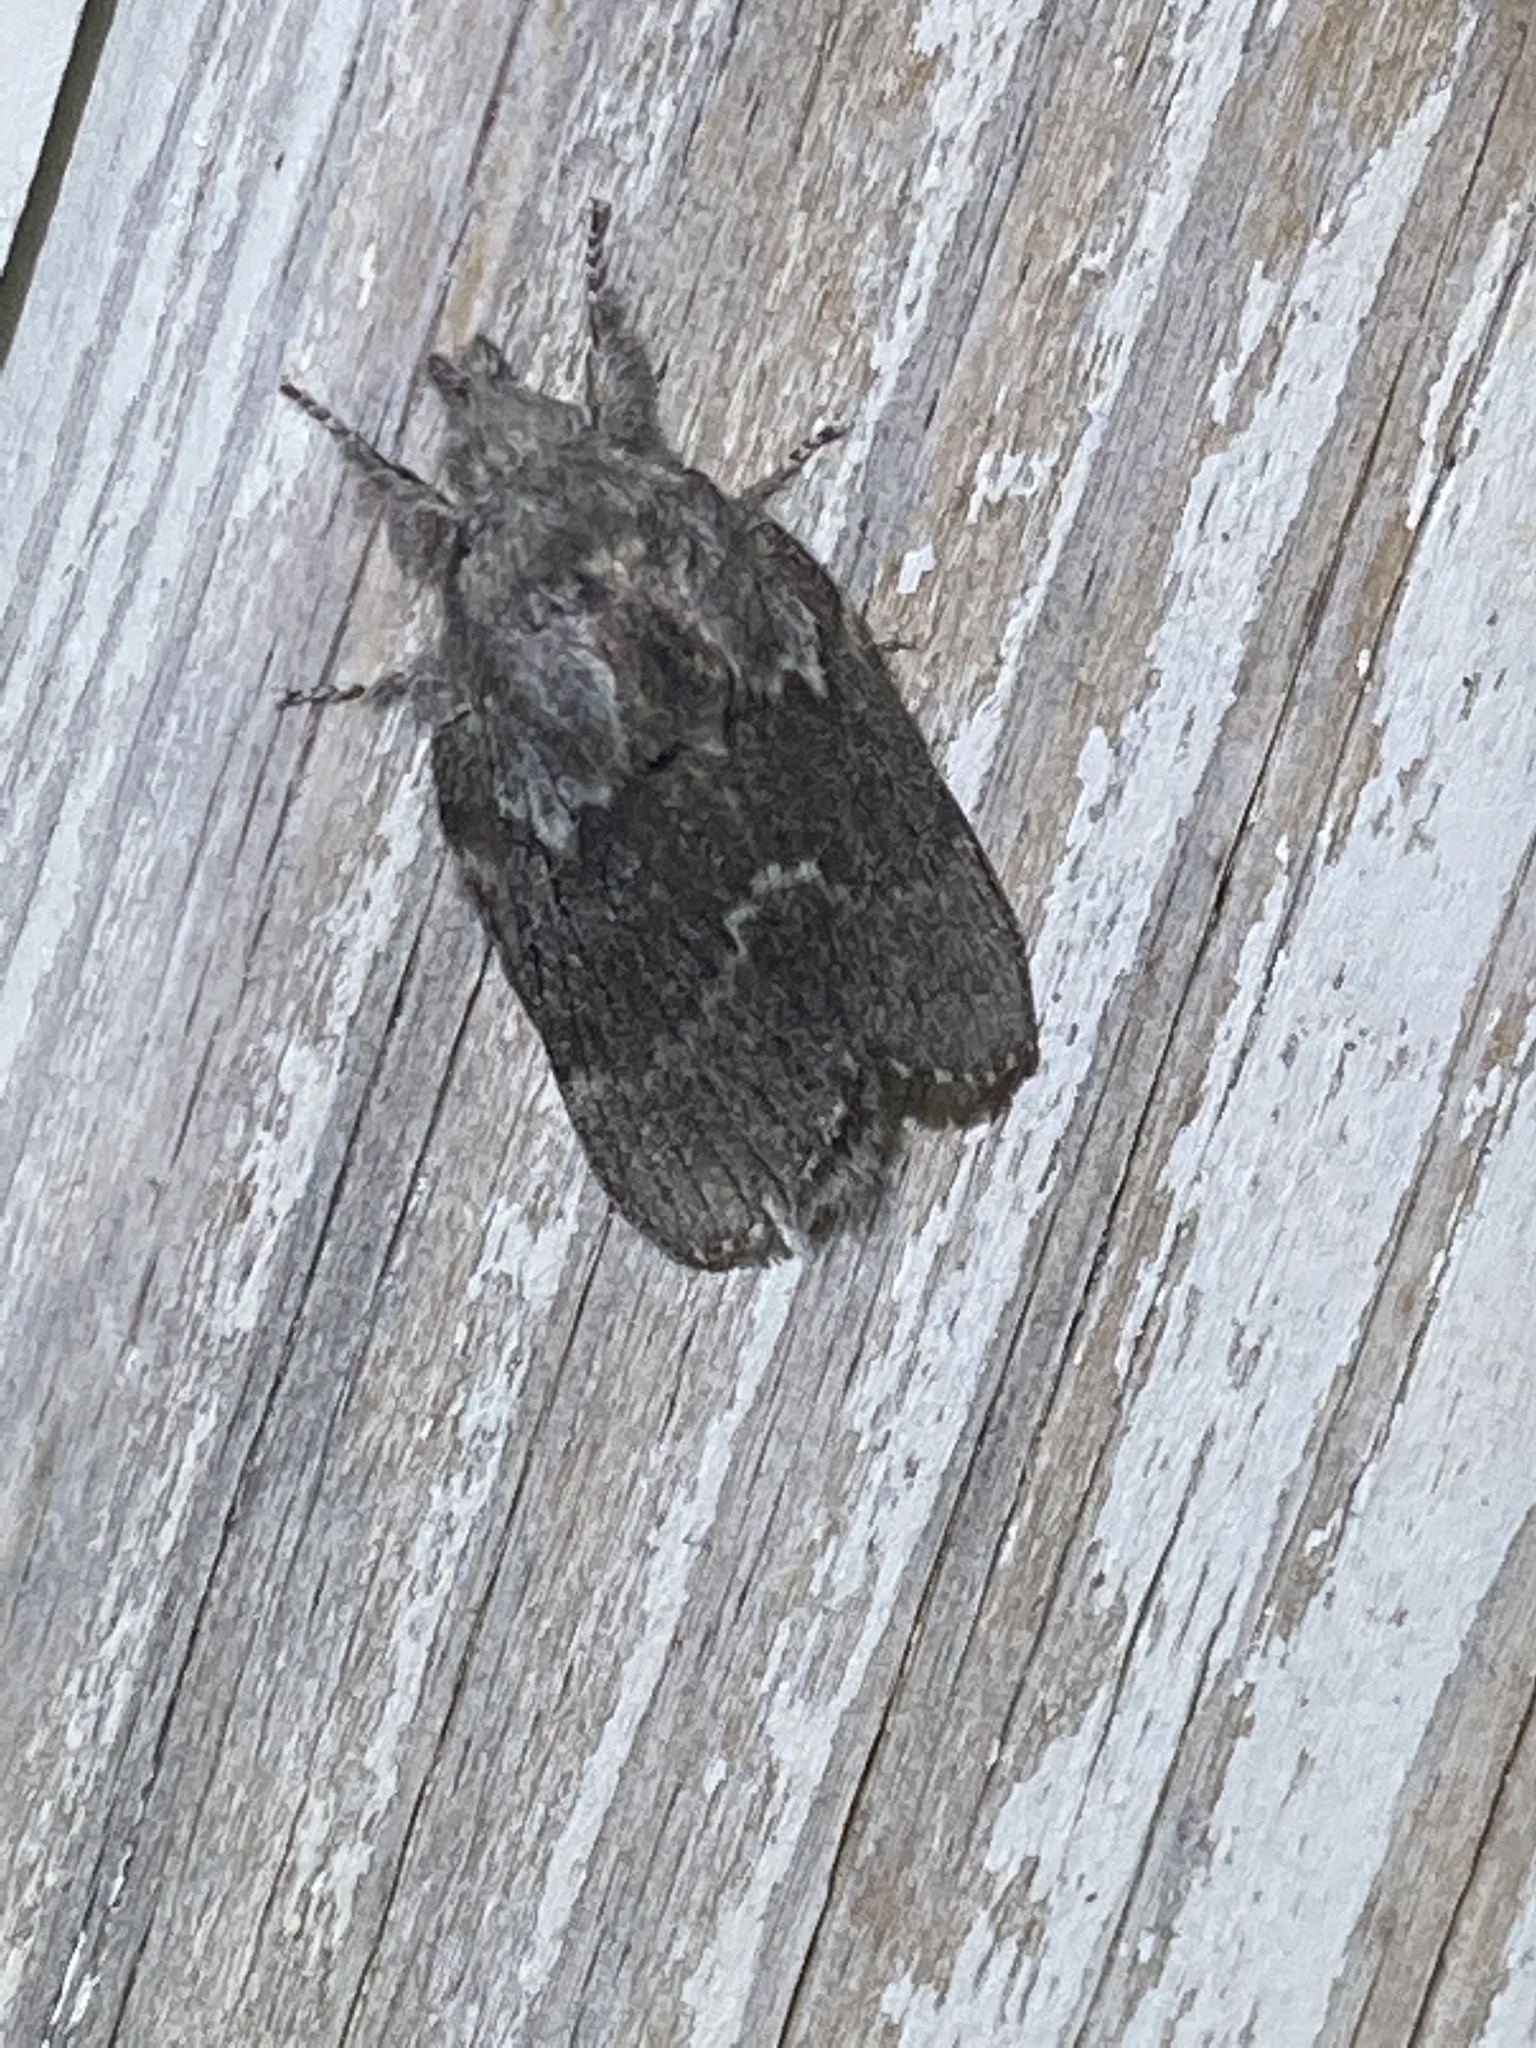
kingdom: Animalia
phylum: Arthropoda
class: Insecta
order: Lepidoptera
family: Lasiocampidae
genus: Heteropacha
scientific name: Heteropacha rileyana
